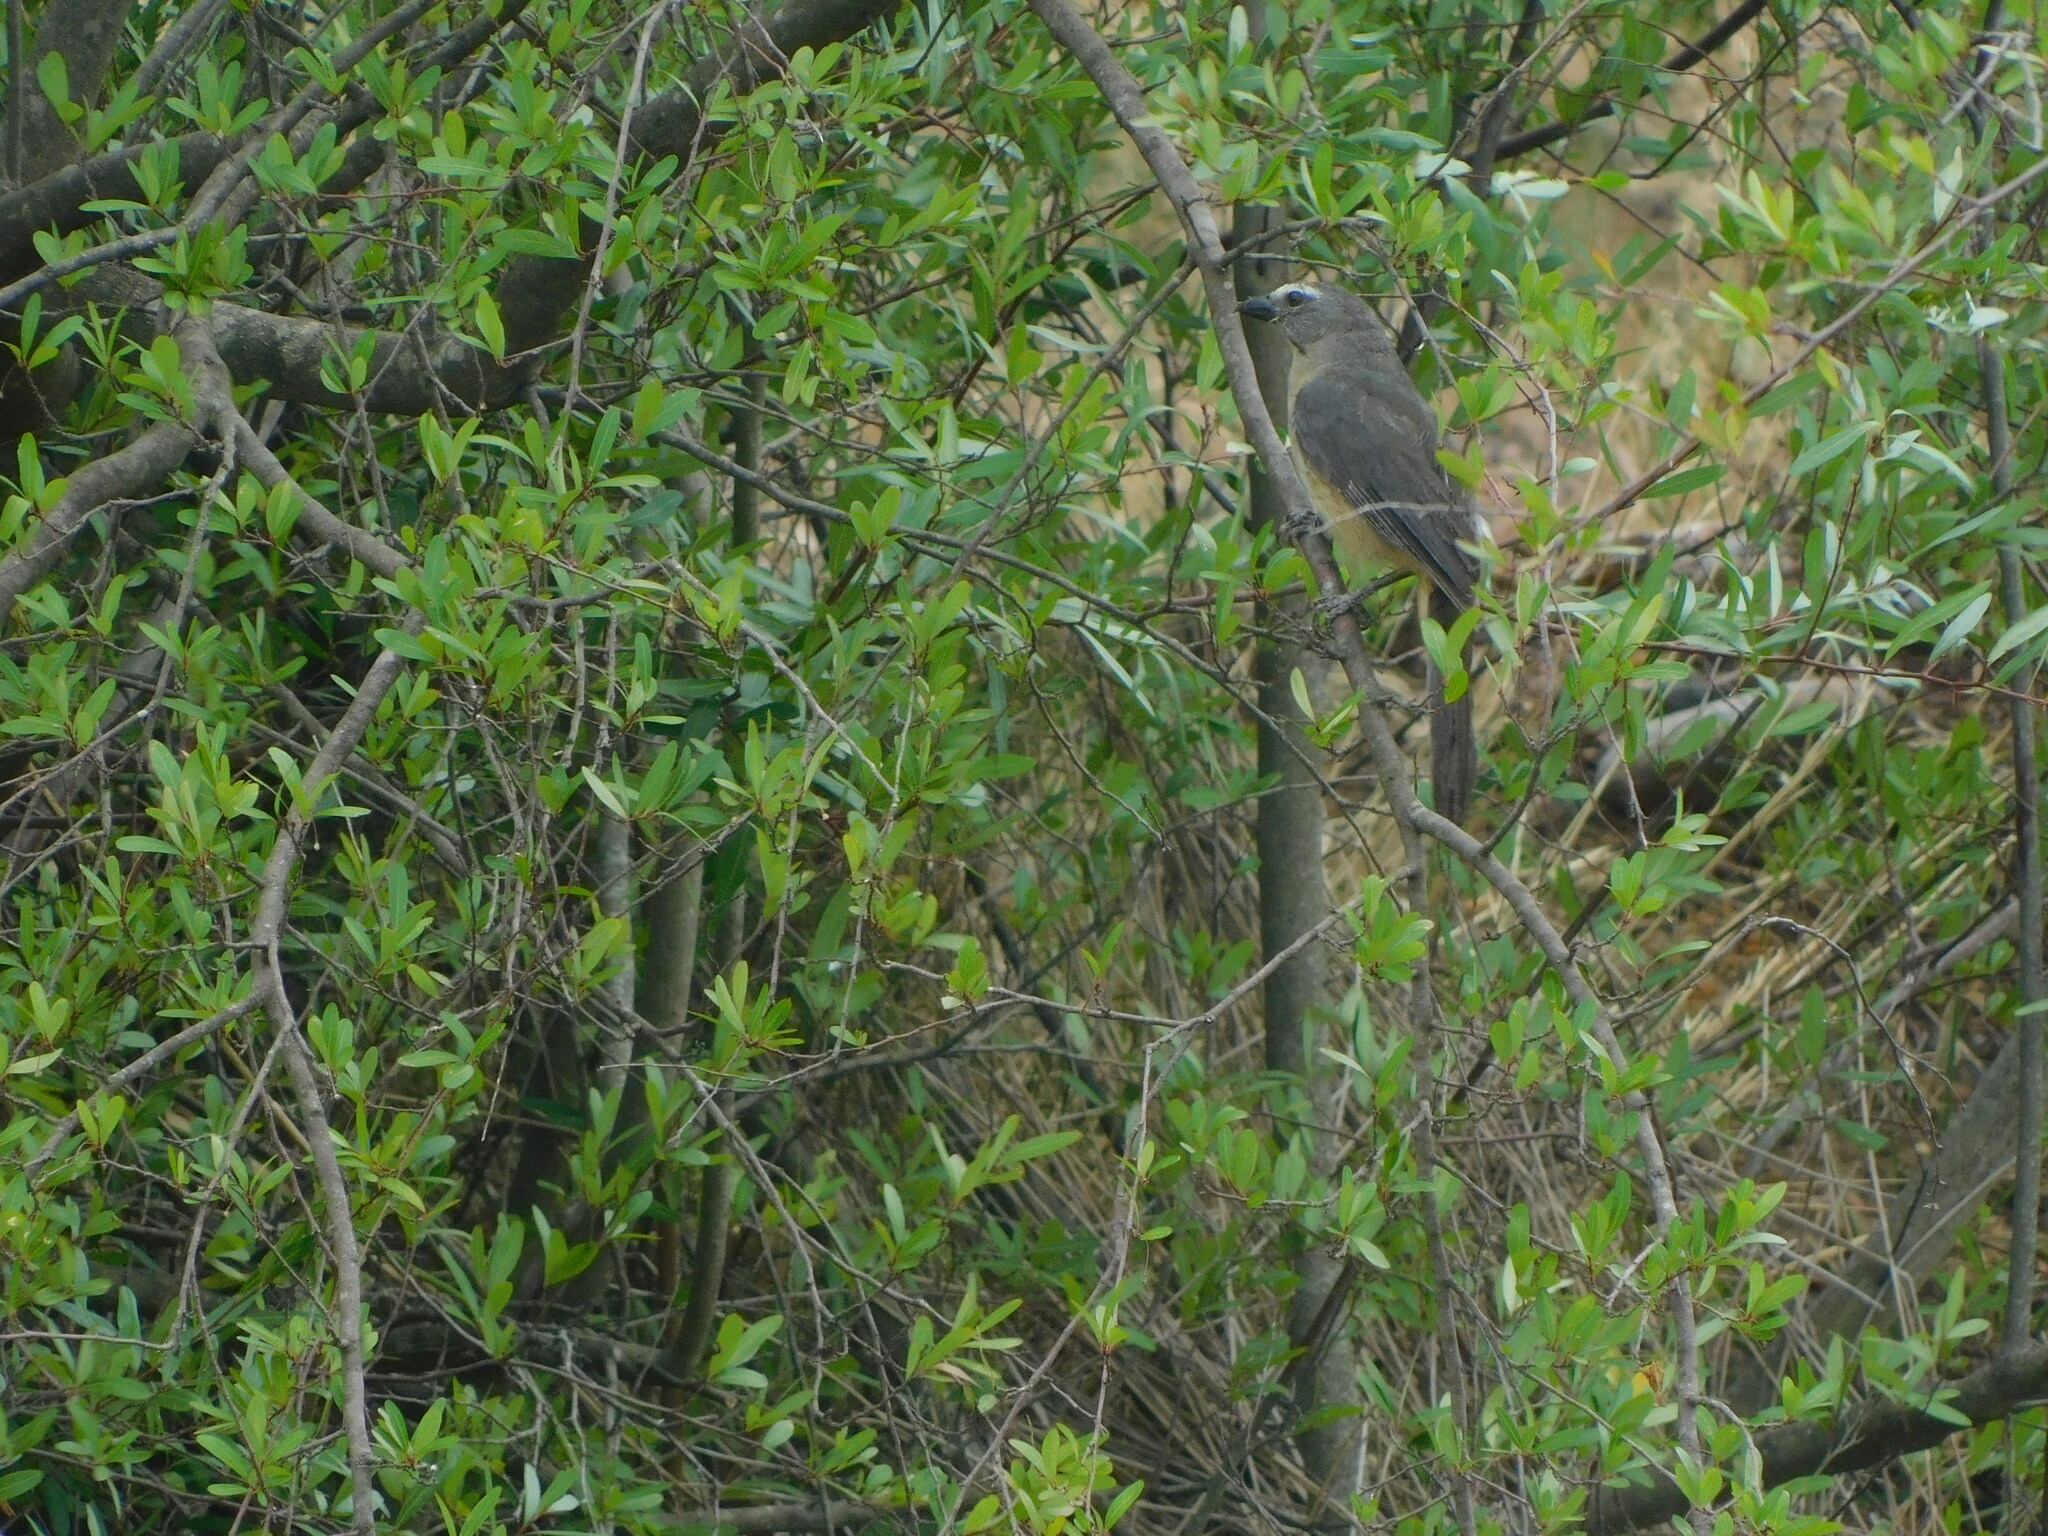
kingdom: Animalia
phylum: Chordata
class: Aves
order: Passeriformes
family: Thraupidae
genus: Saltator
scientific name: Saltator coerulescens
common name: Grayish saltator
